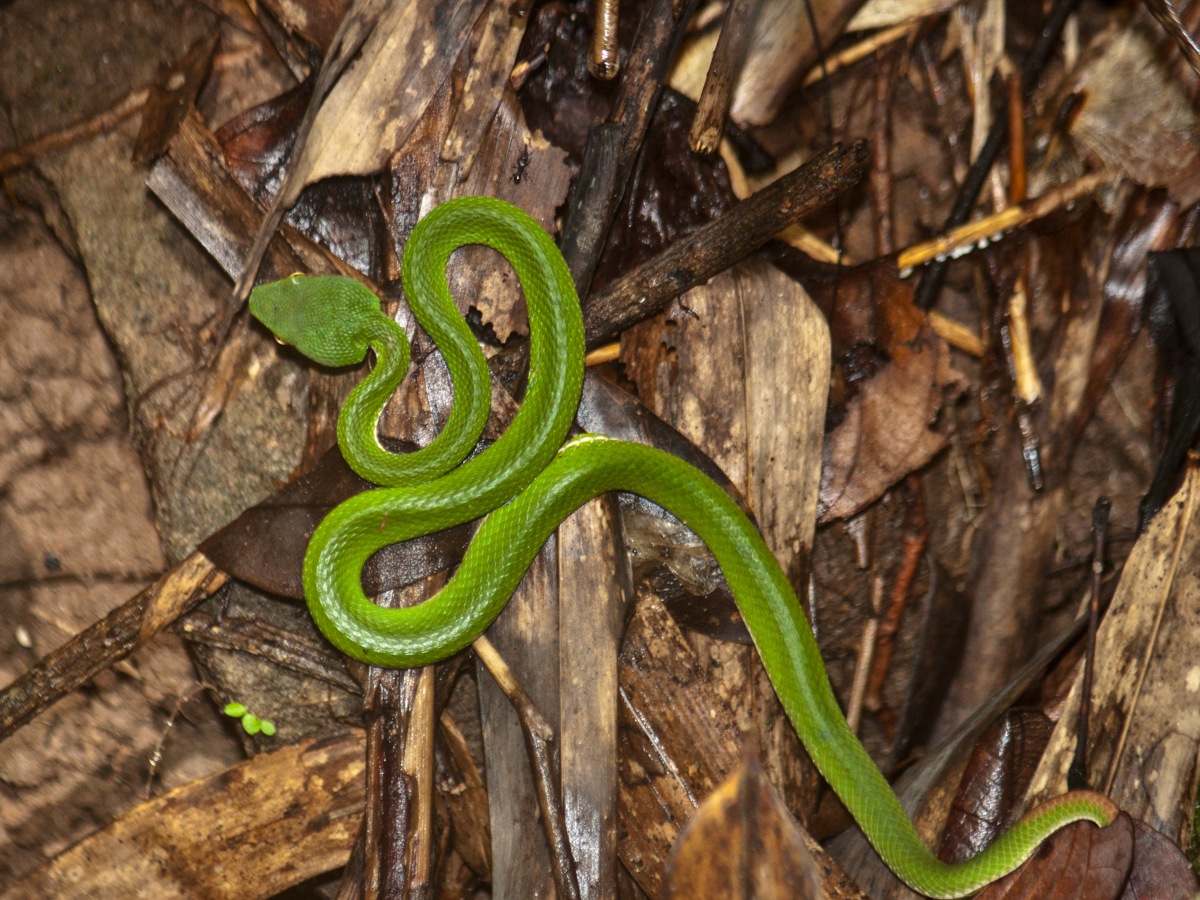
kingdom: Animalia
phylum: Chordata
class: Squamata
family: Viperidae
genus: Trimeresurus
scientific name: Trimeresurus cardamomensis
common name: Cardamom mountains green pitviper
